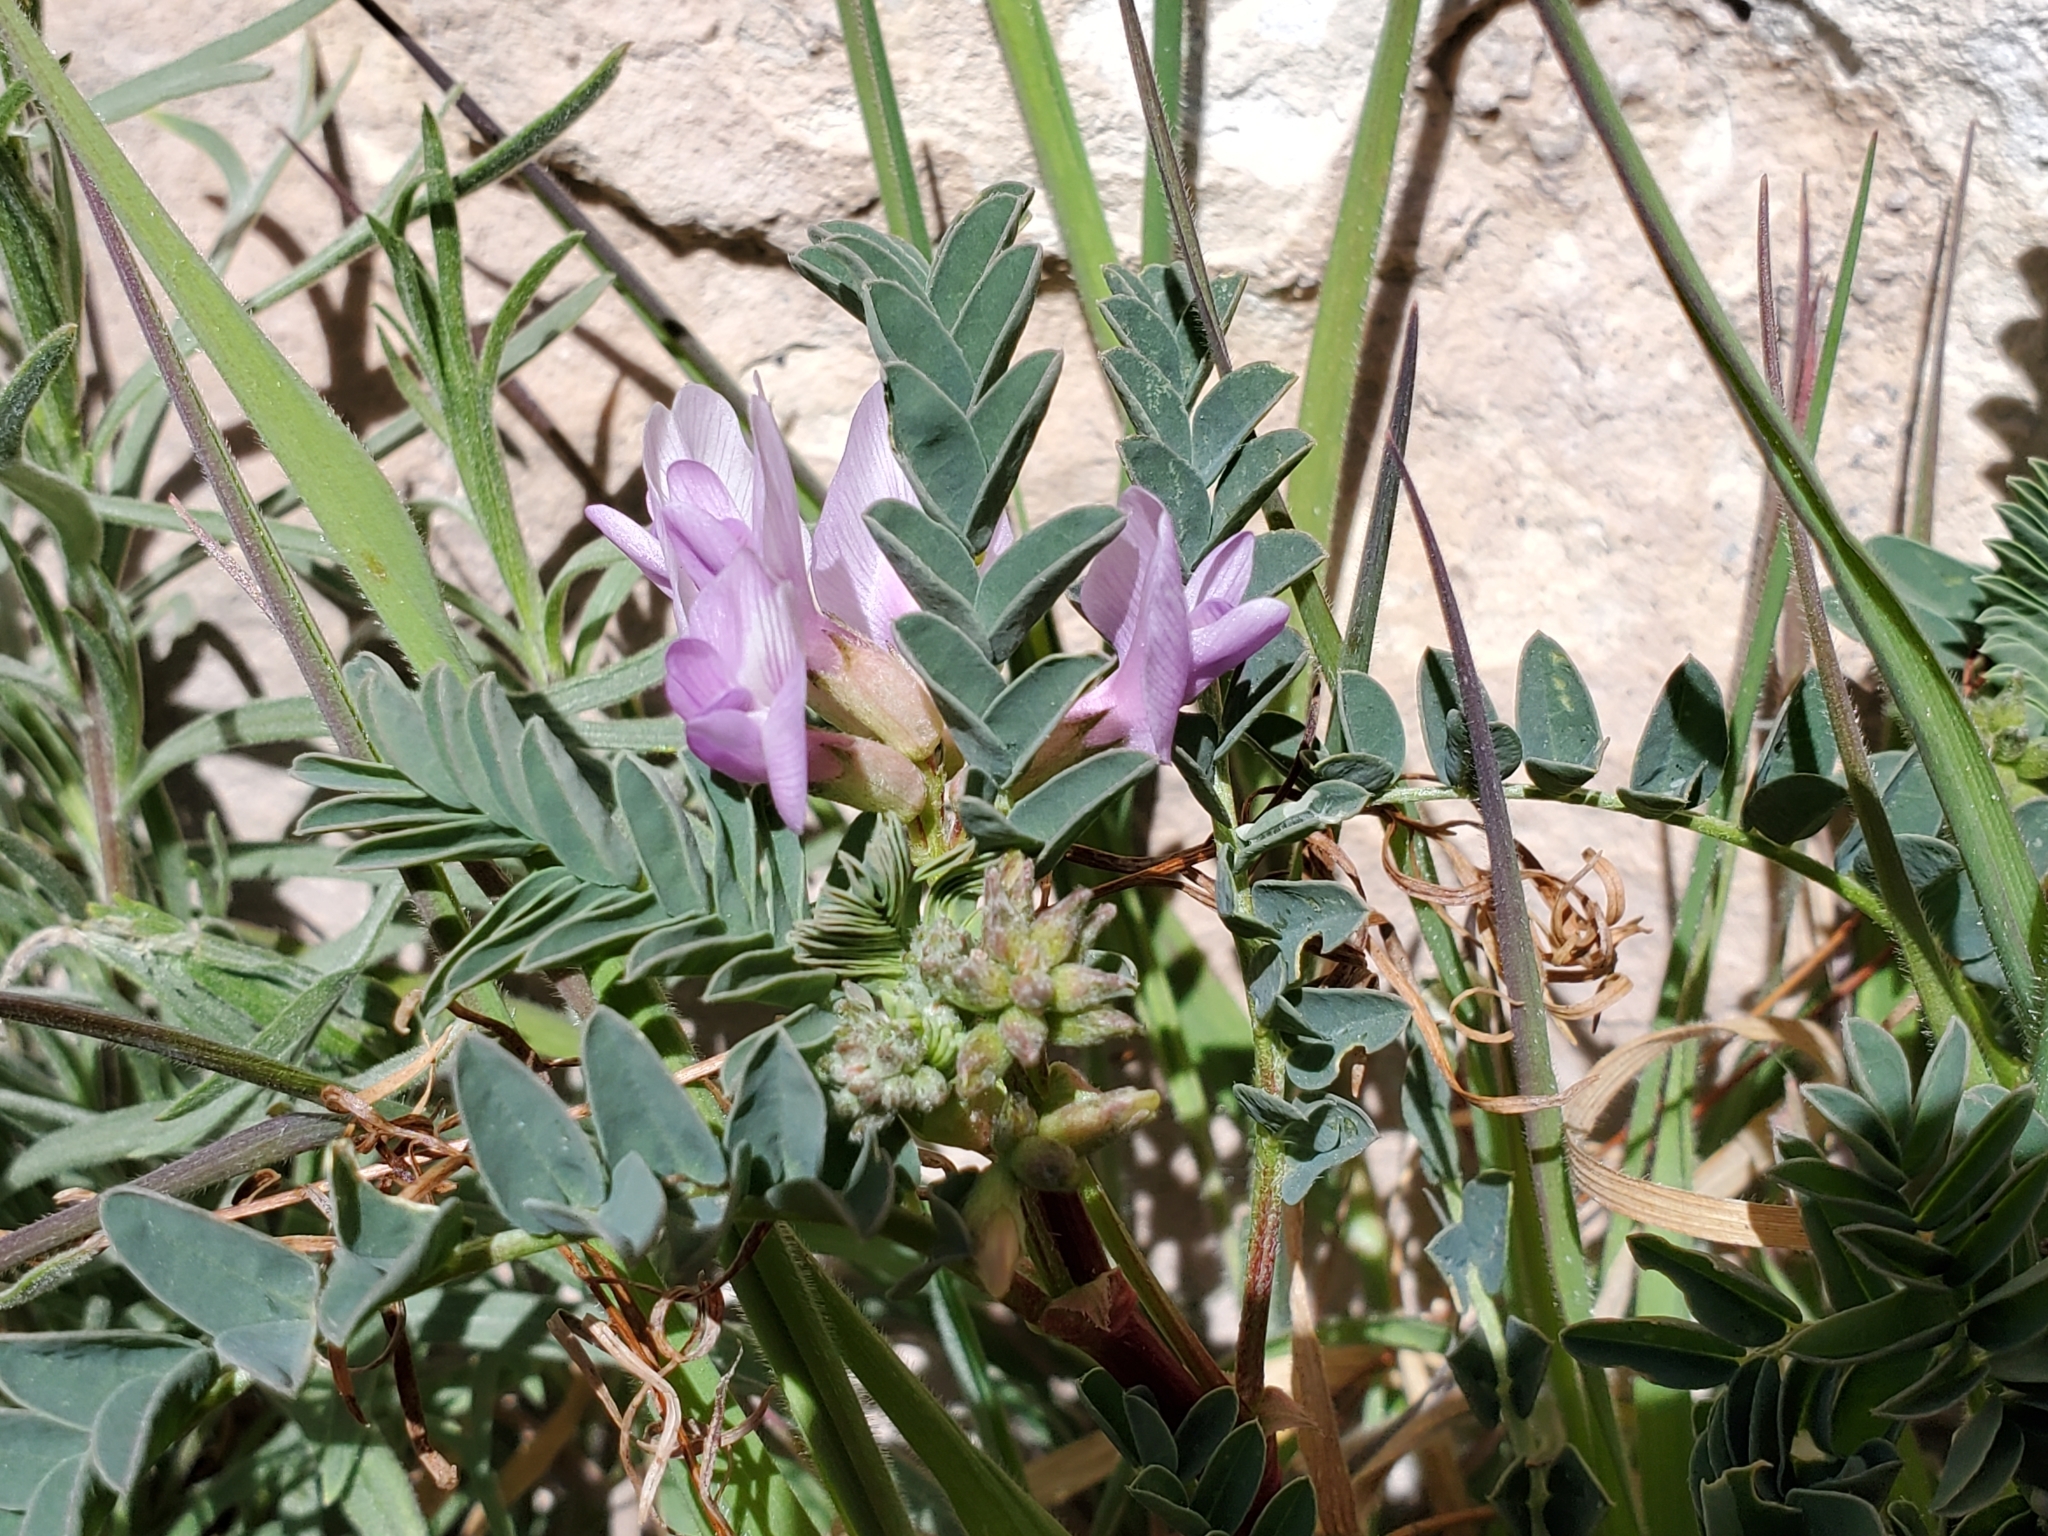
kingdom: Plantae
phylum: Tracheophyta
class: Magnoliopsida
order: Fabales
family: Fabaceae
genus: Astragalus
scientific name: Astragalus lentiginosus
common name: Freckled milkvetch
